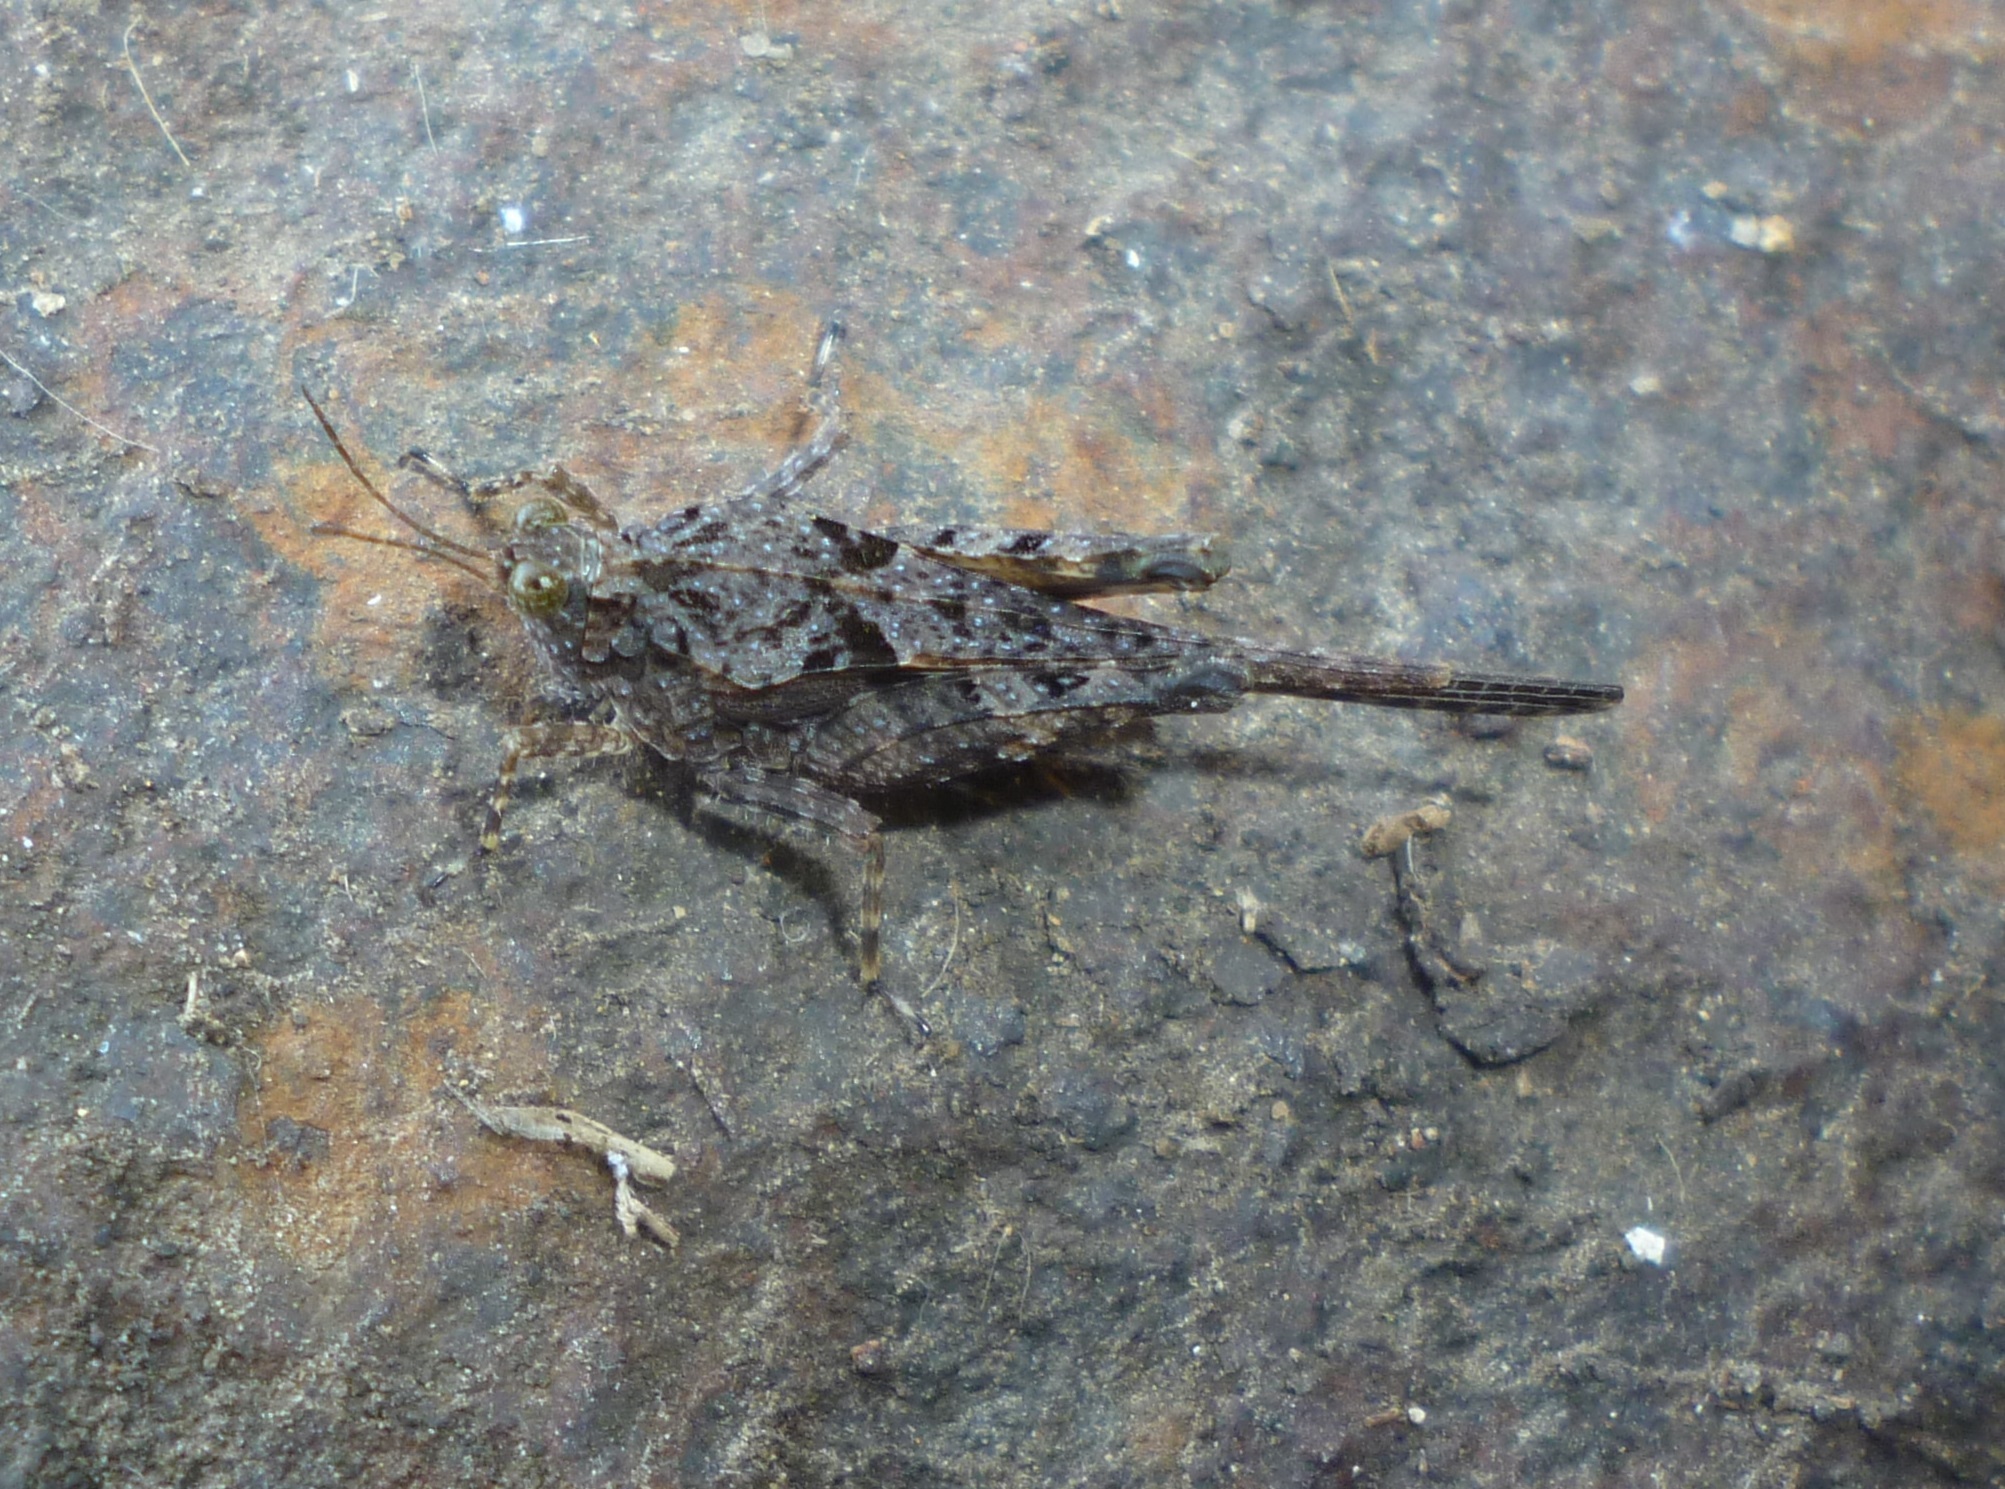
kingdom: Animalia
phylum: Arthropoda
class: Insecta
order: Orthoptera
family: Tetrigidae
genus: Paratettix
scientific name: Paratettix meridionalis
